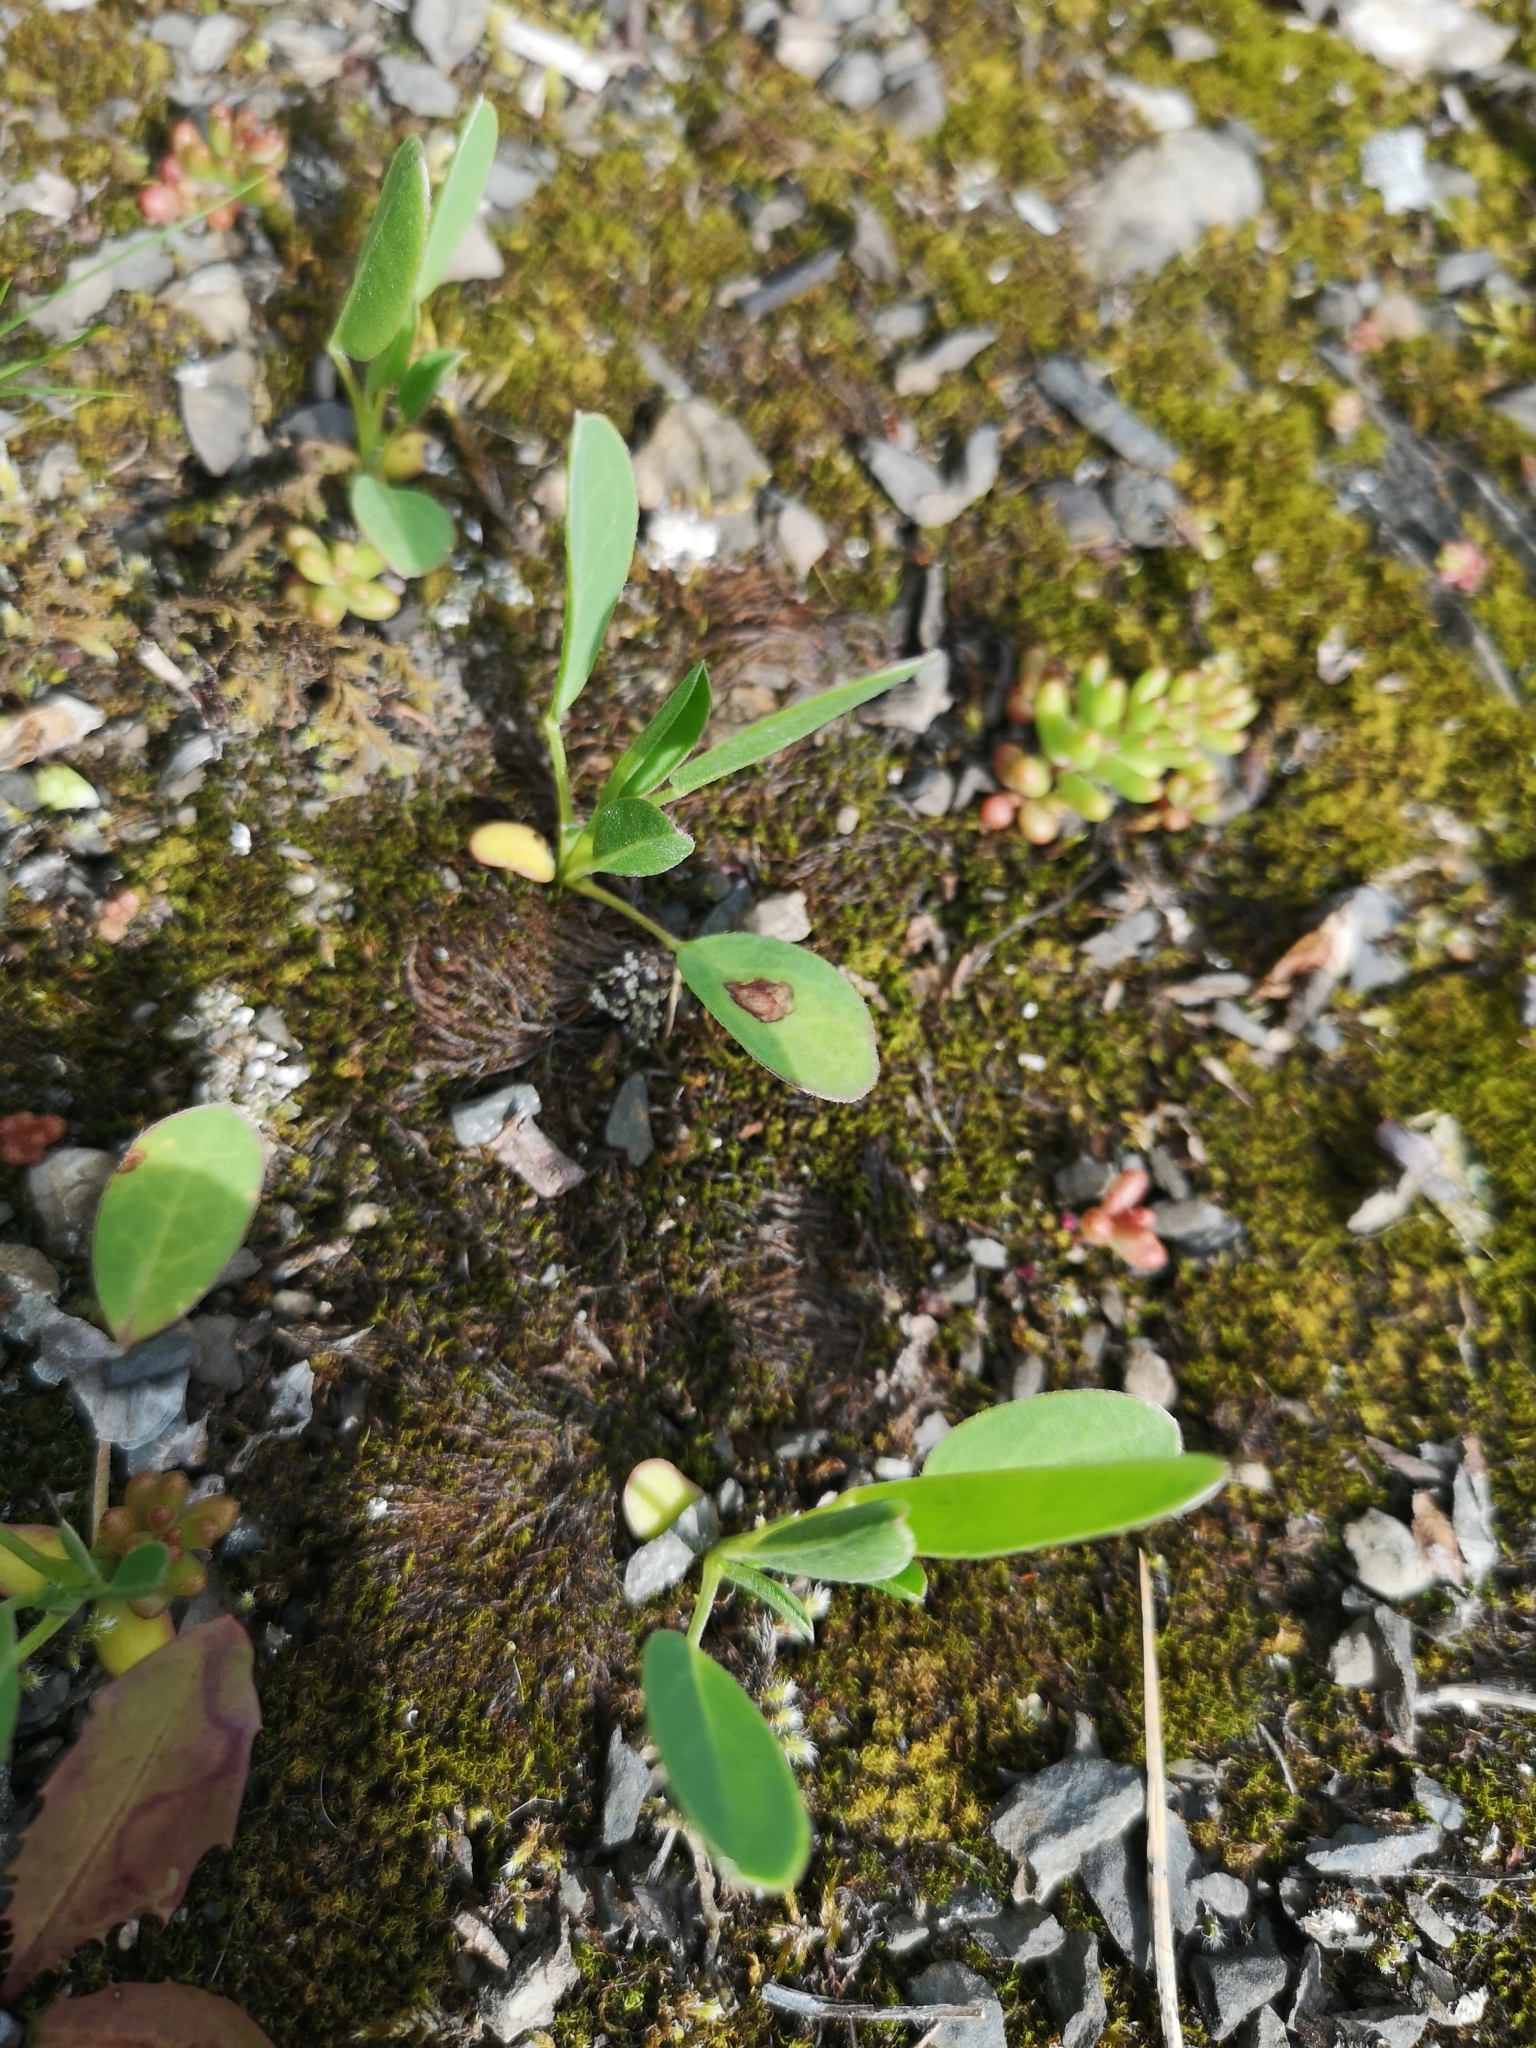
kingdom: Plantae
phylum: Tracheophyta
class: Magnoliopsida
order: Fabales
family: Fabaceae
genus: Anthyllis
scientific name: Anthyllis vulneraria
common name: Kidney vetch
